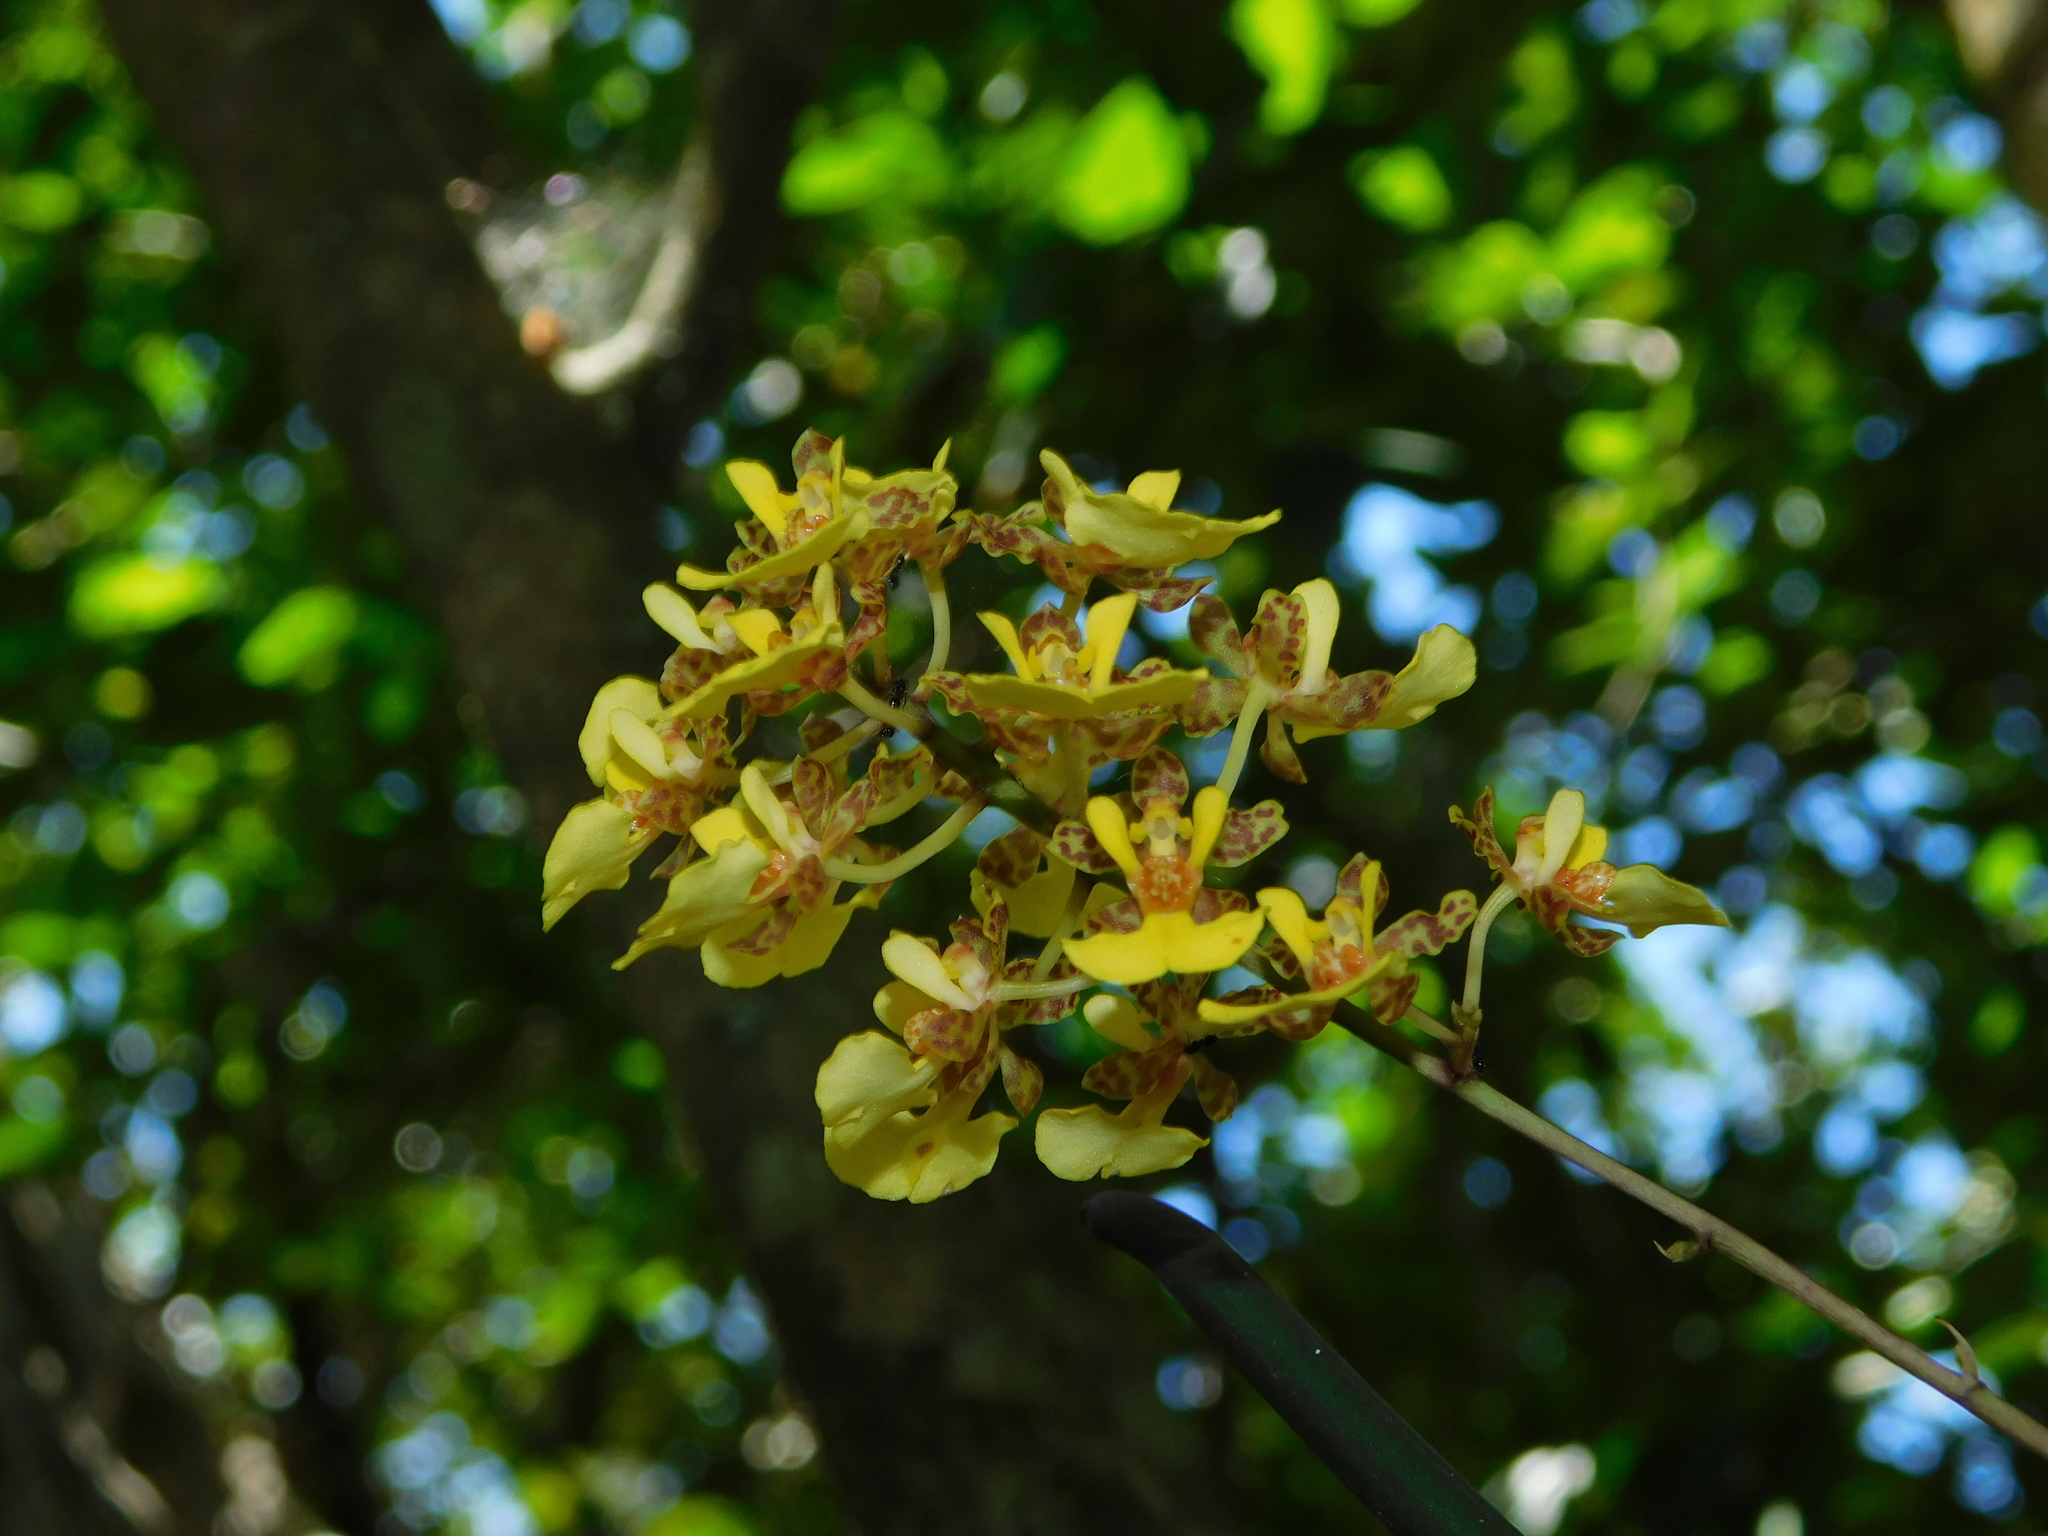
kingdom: Plantae
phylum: Tracheophyta
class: Liliopsida
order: Asparagales
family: Orchidaceae
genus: Trichocentrum
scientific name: Trichocentrum ascendens
